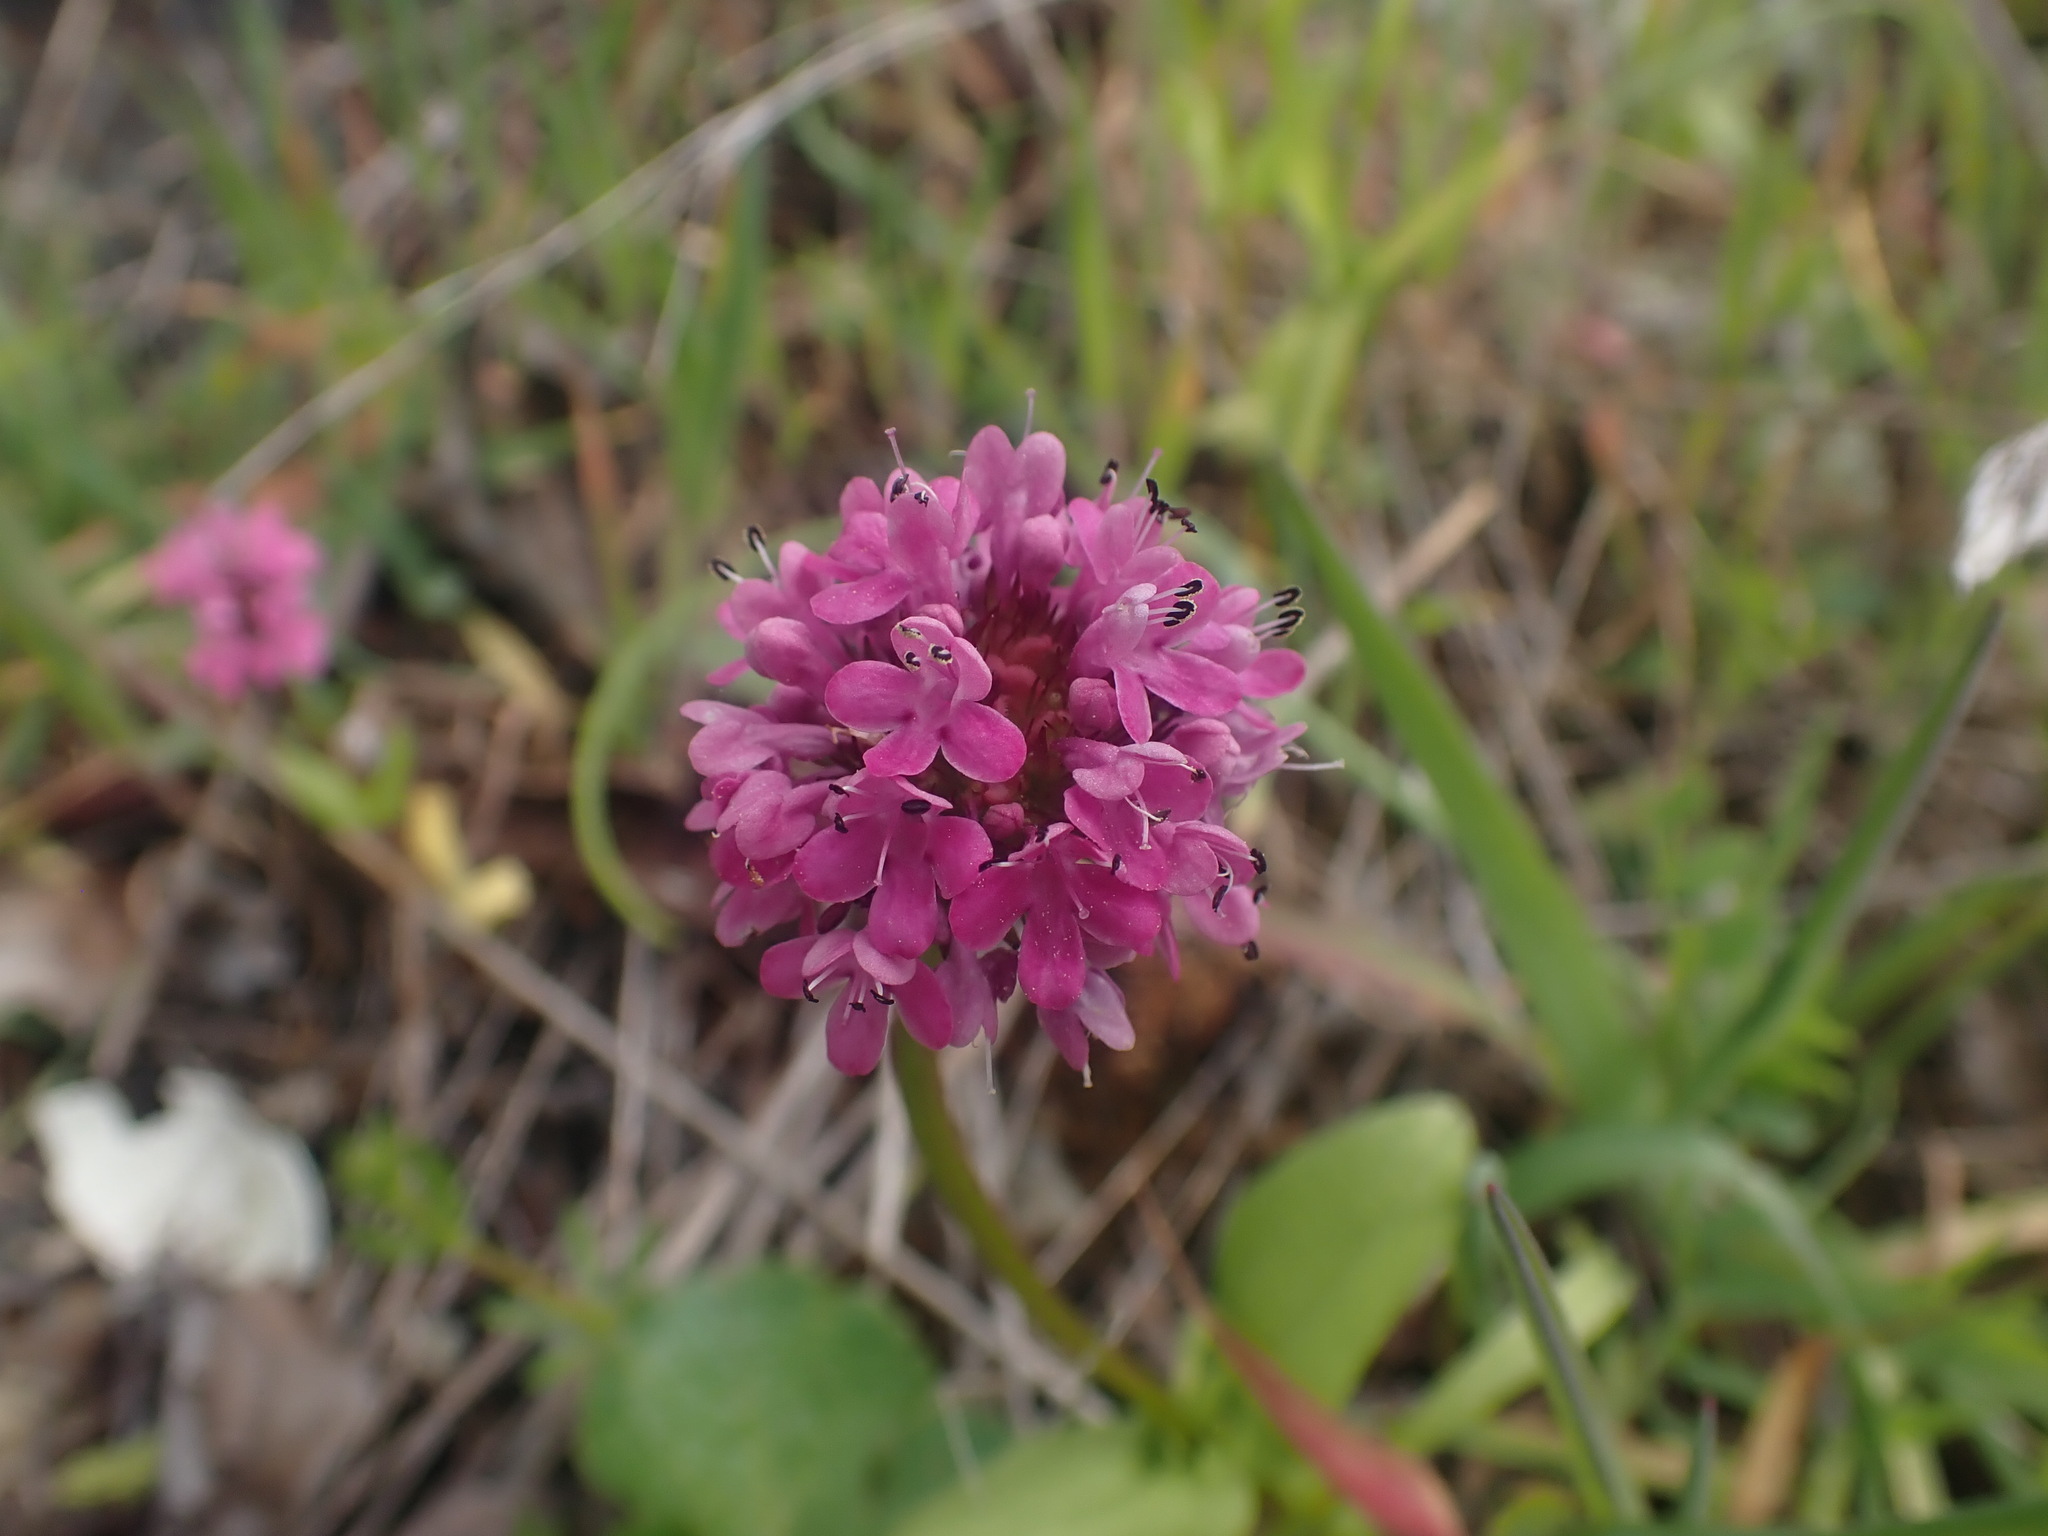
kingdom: Plantae
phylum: Tracheophyta
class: Magnoliopsida
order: Dipsacales
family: Caprifoliaceae
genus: Plectritis
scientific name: Plectritis congesta
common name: Pink plectritis
